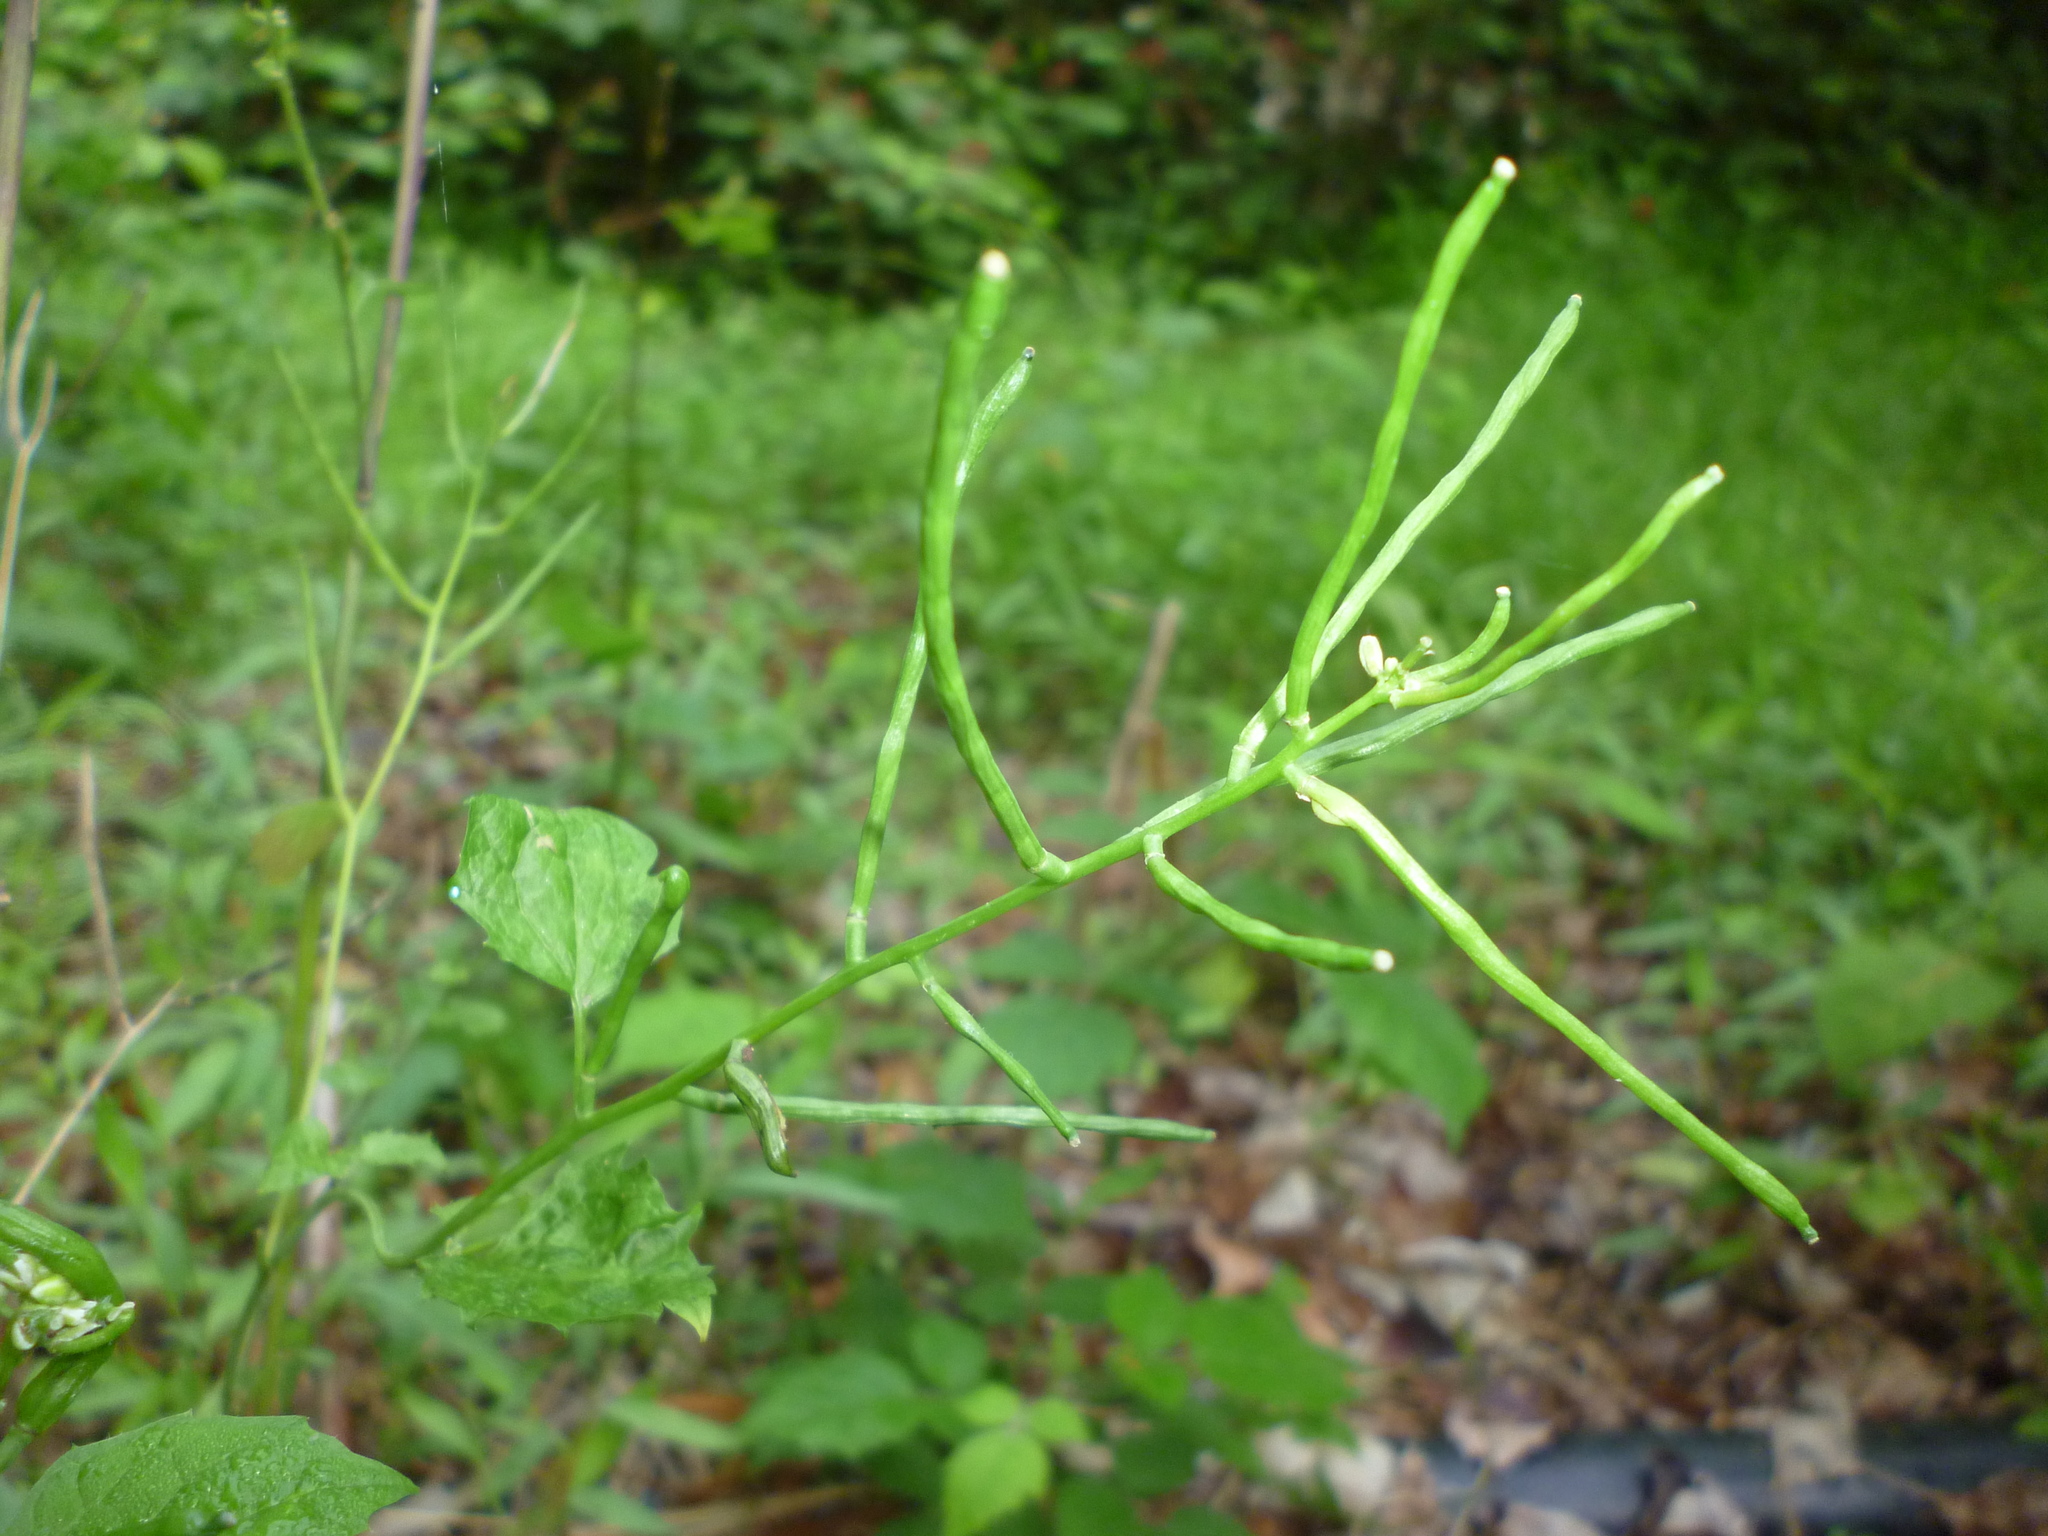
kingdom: Plantae
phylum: Tracheophyta
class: Magnoliopsida
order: Brassicales
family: Brassicaceae
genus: Alliaria
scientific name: Alliaria petiolata
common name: Garlic mustard
